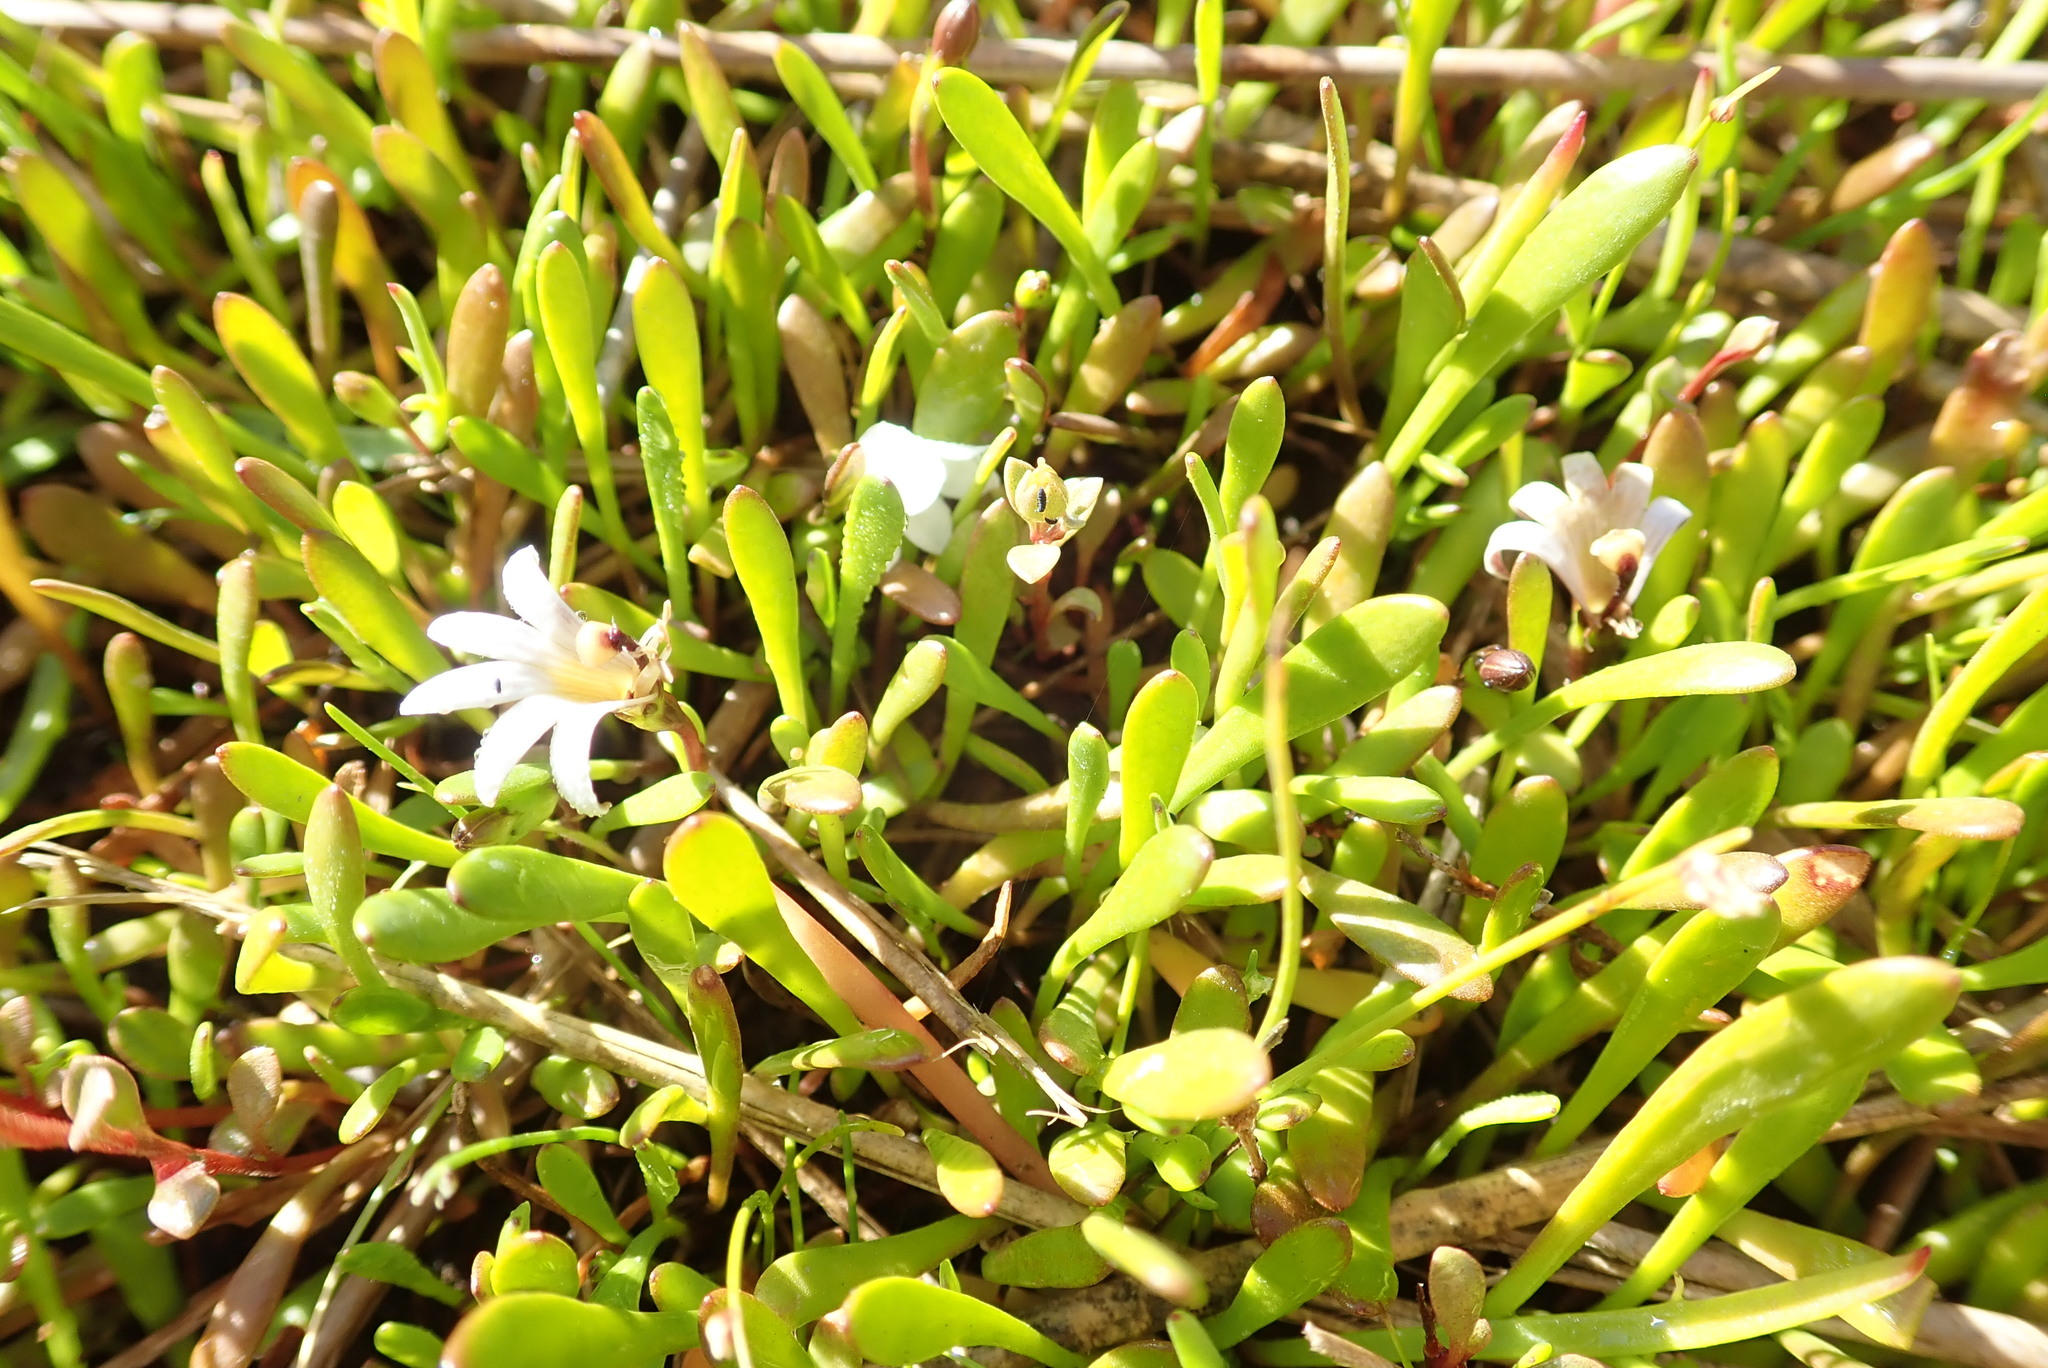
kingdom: Plantae
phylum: Tracheophyta
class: Magnoliopsida
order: Asterales
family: Goodeniaceae
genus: Goodenia
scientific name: Goodenia radicans
